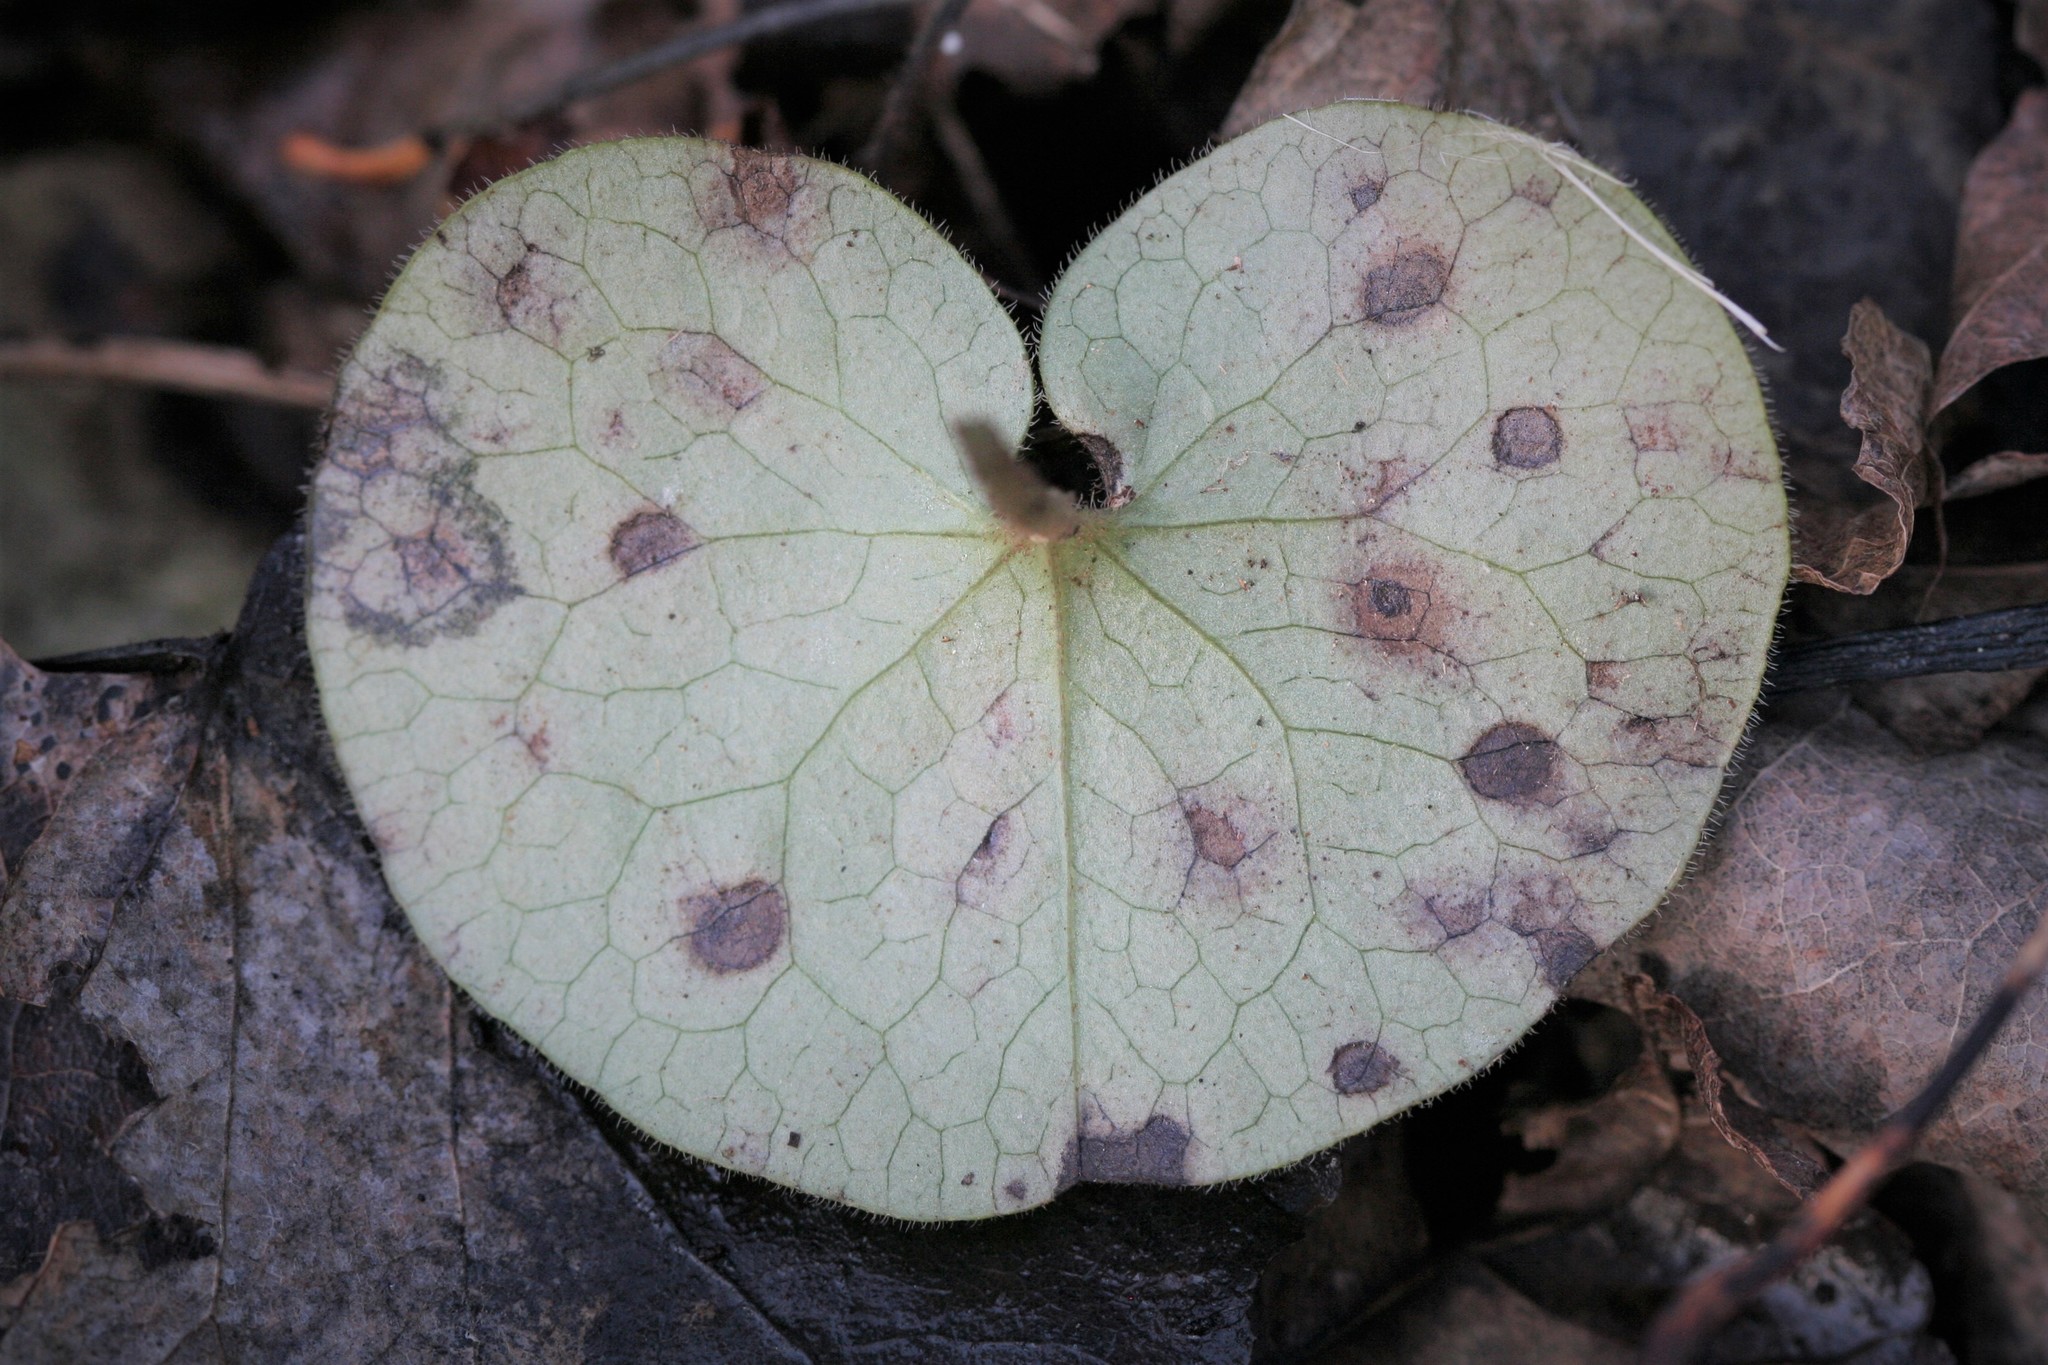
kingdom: Plantae
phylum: Tracheophyta
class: Magnoliopsida
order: Piperales
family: Aristolochiaceae
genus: Asarum
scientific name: Asarum europaeum
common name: Asarabacca
